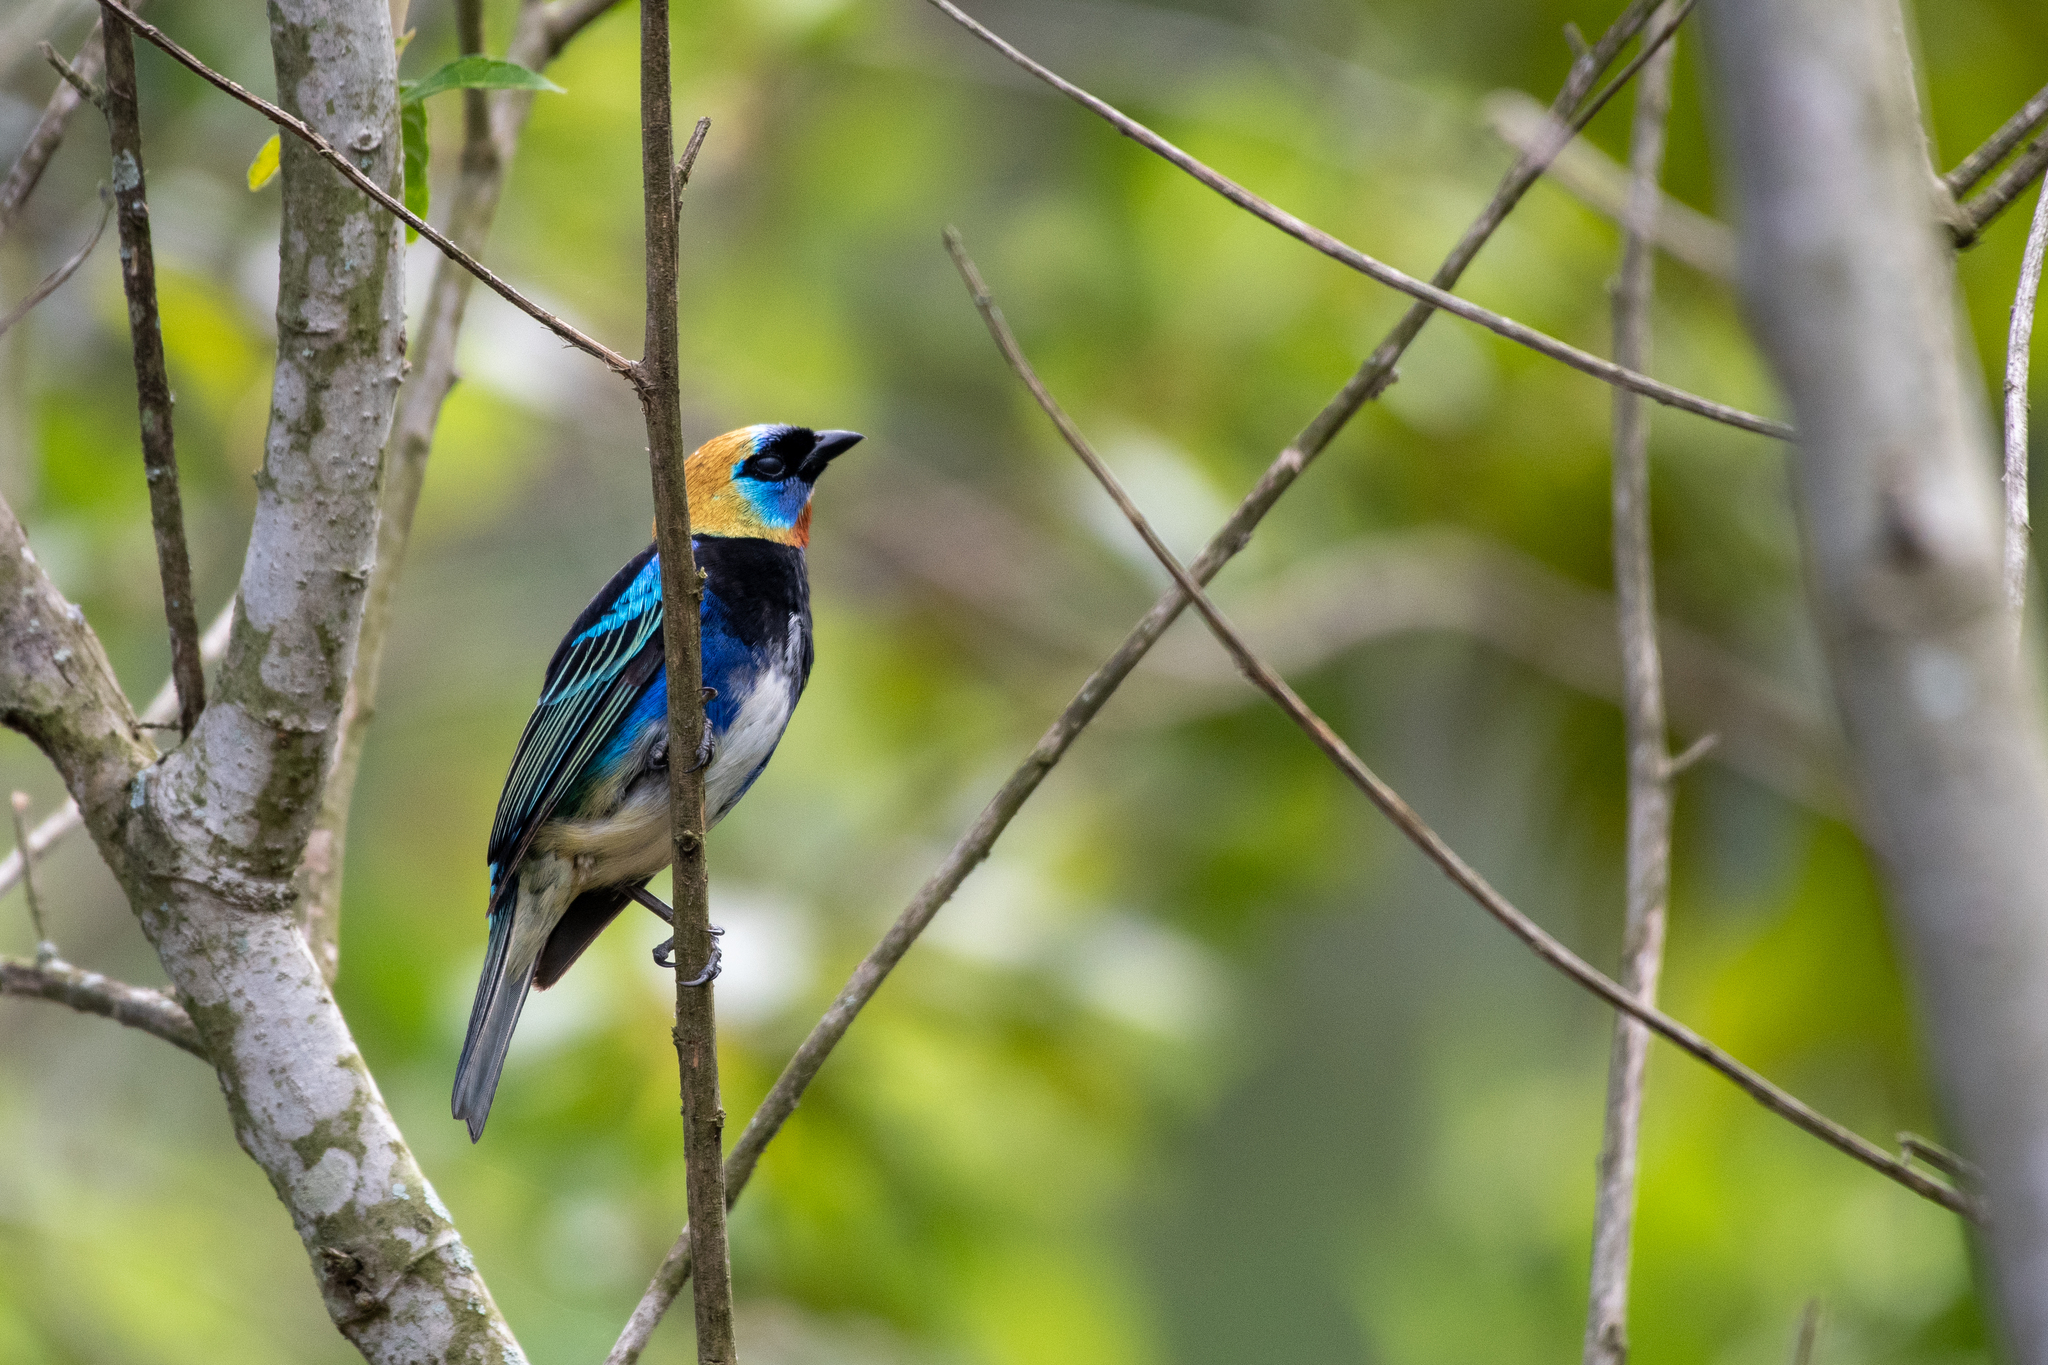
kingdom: Animalia
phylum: Chordata
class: Aves
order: Passeriformes
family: Thraupidae
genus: Stilpnia
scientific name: Stilpnia larvata
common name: Golden-hooded tanager
